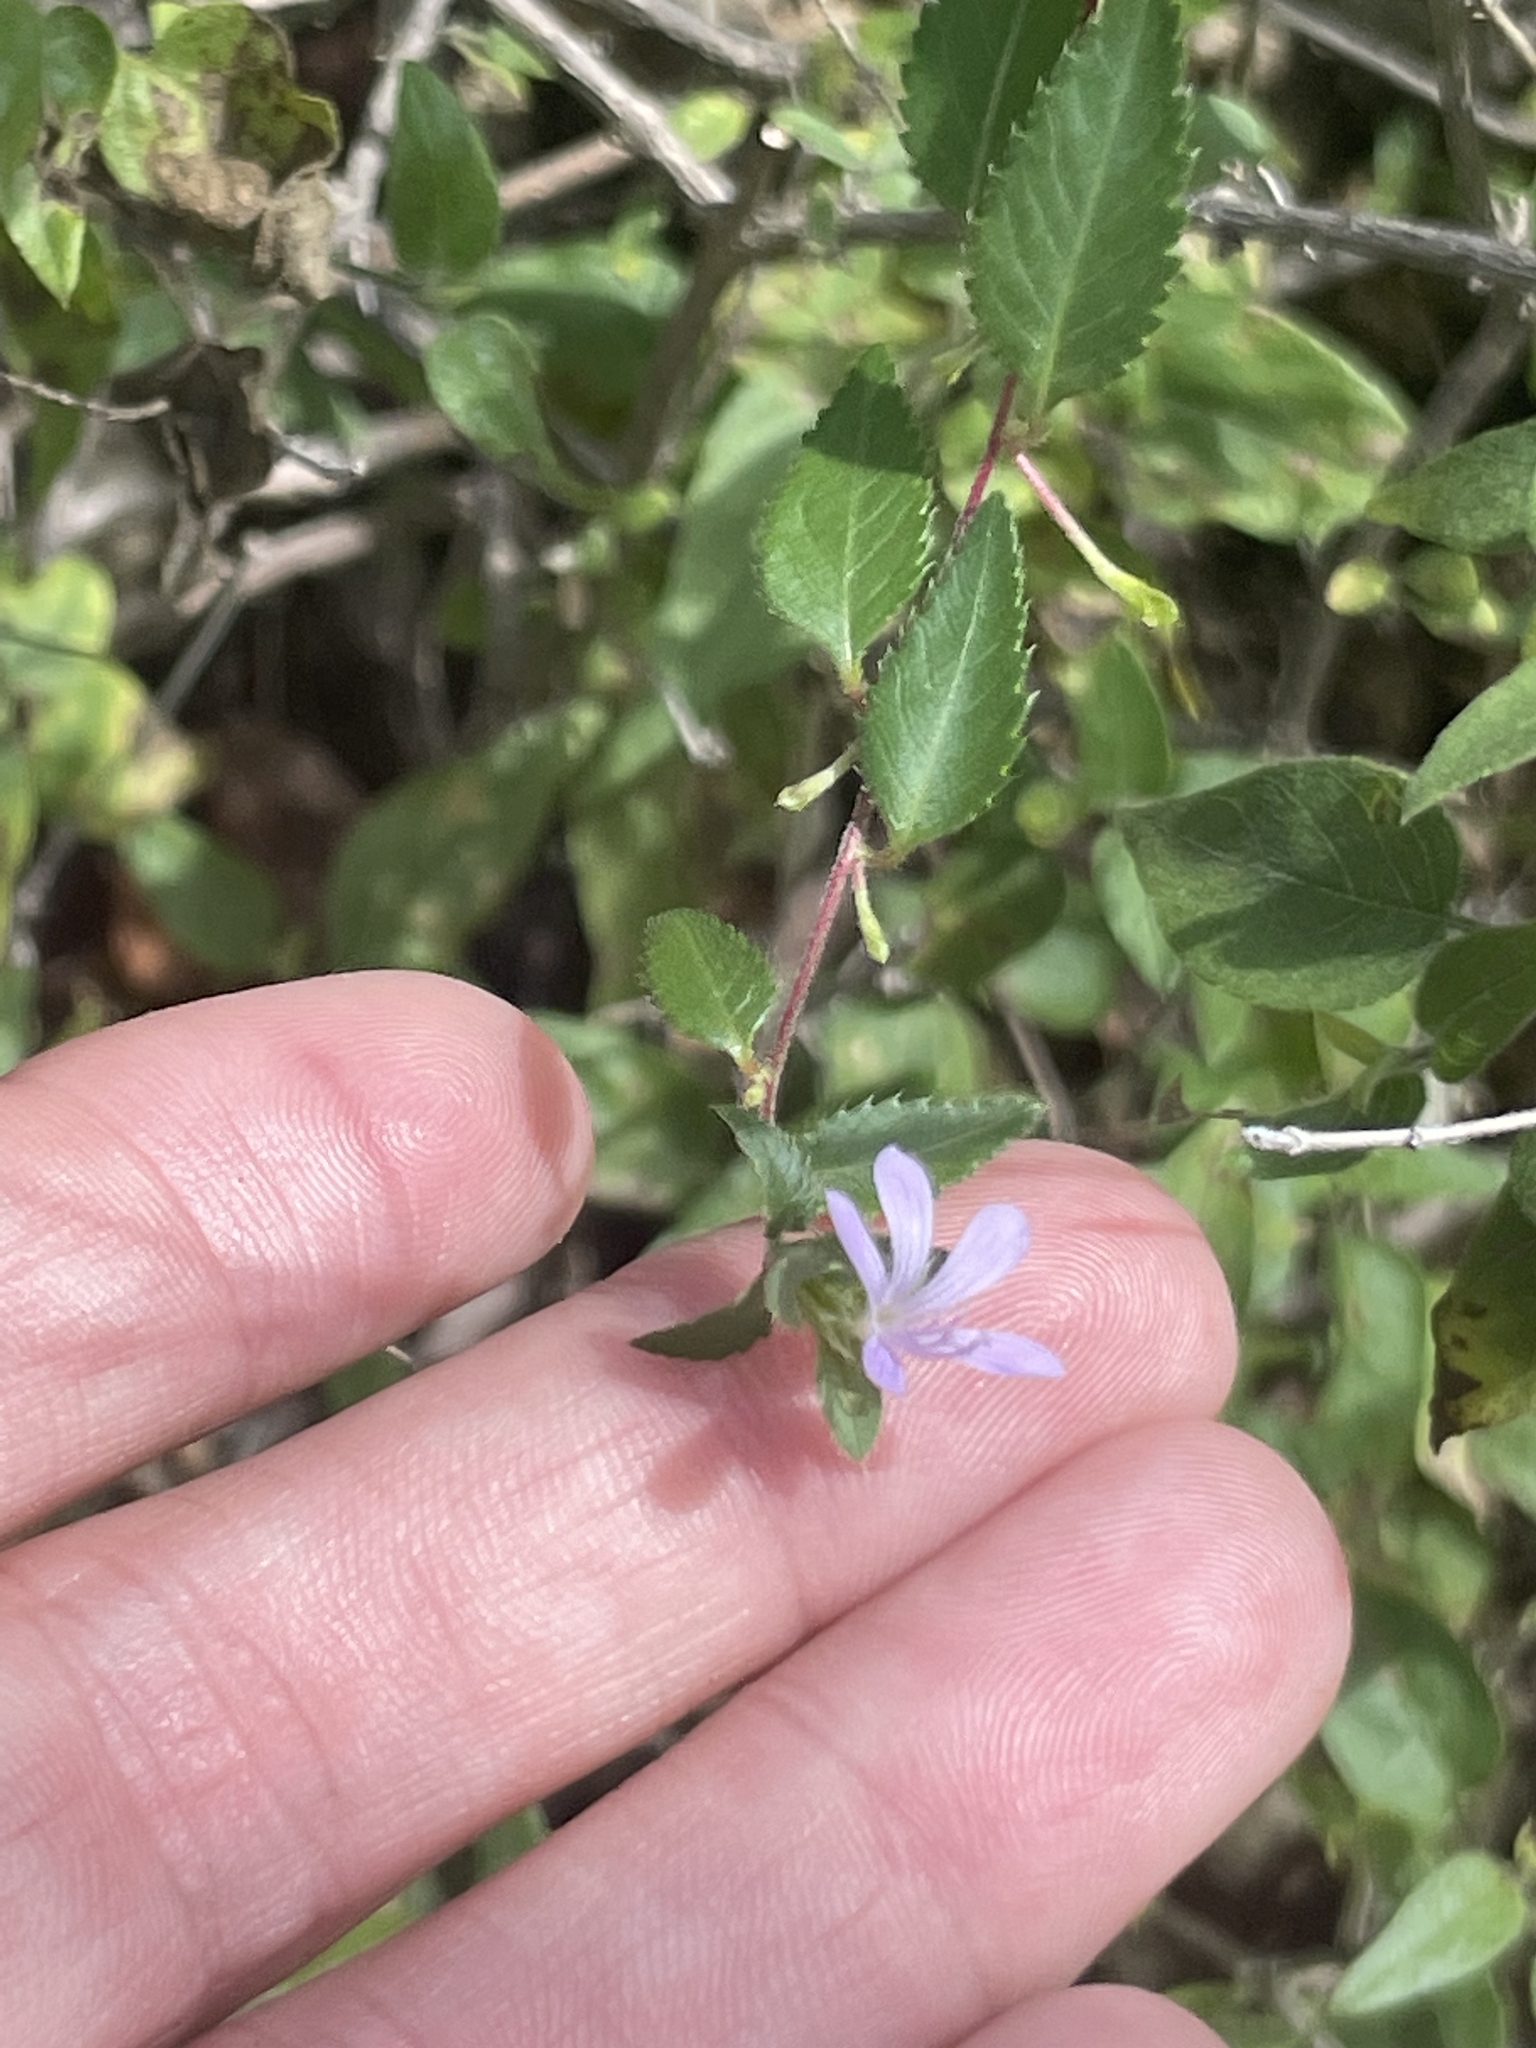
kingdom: Plantae
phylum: Tracheophyta
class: Magnoliopsida
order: Ericales
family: Polemoniaceae
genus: Loeselia
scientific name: Loeselia ciliata
